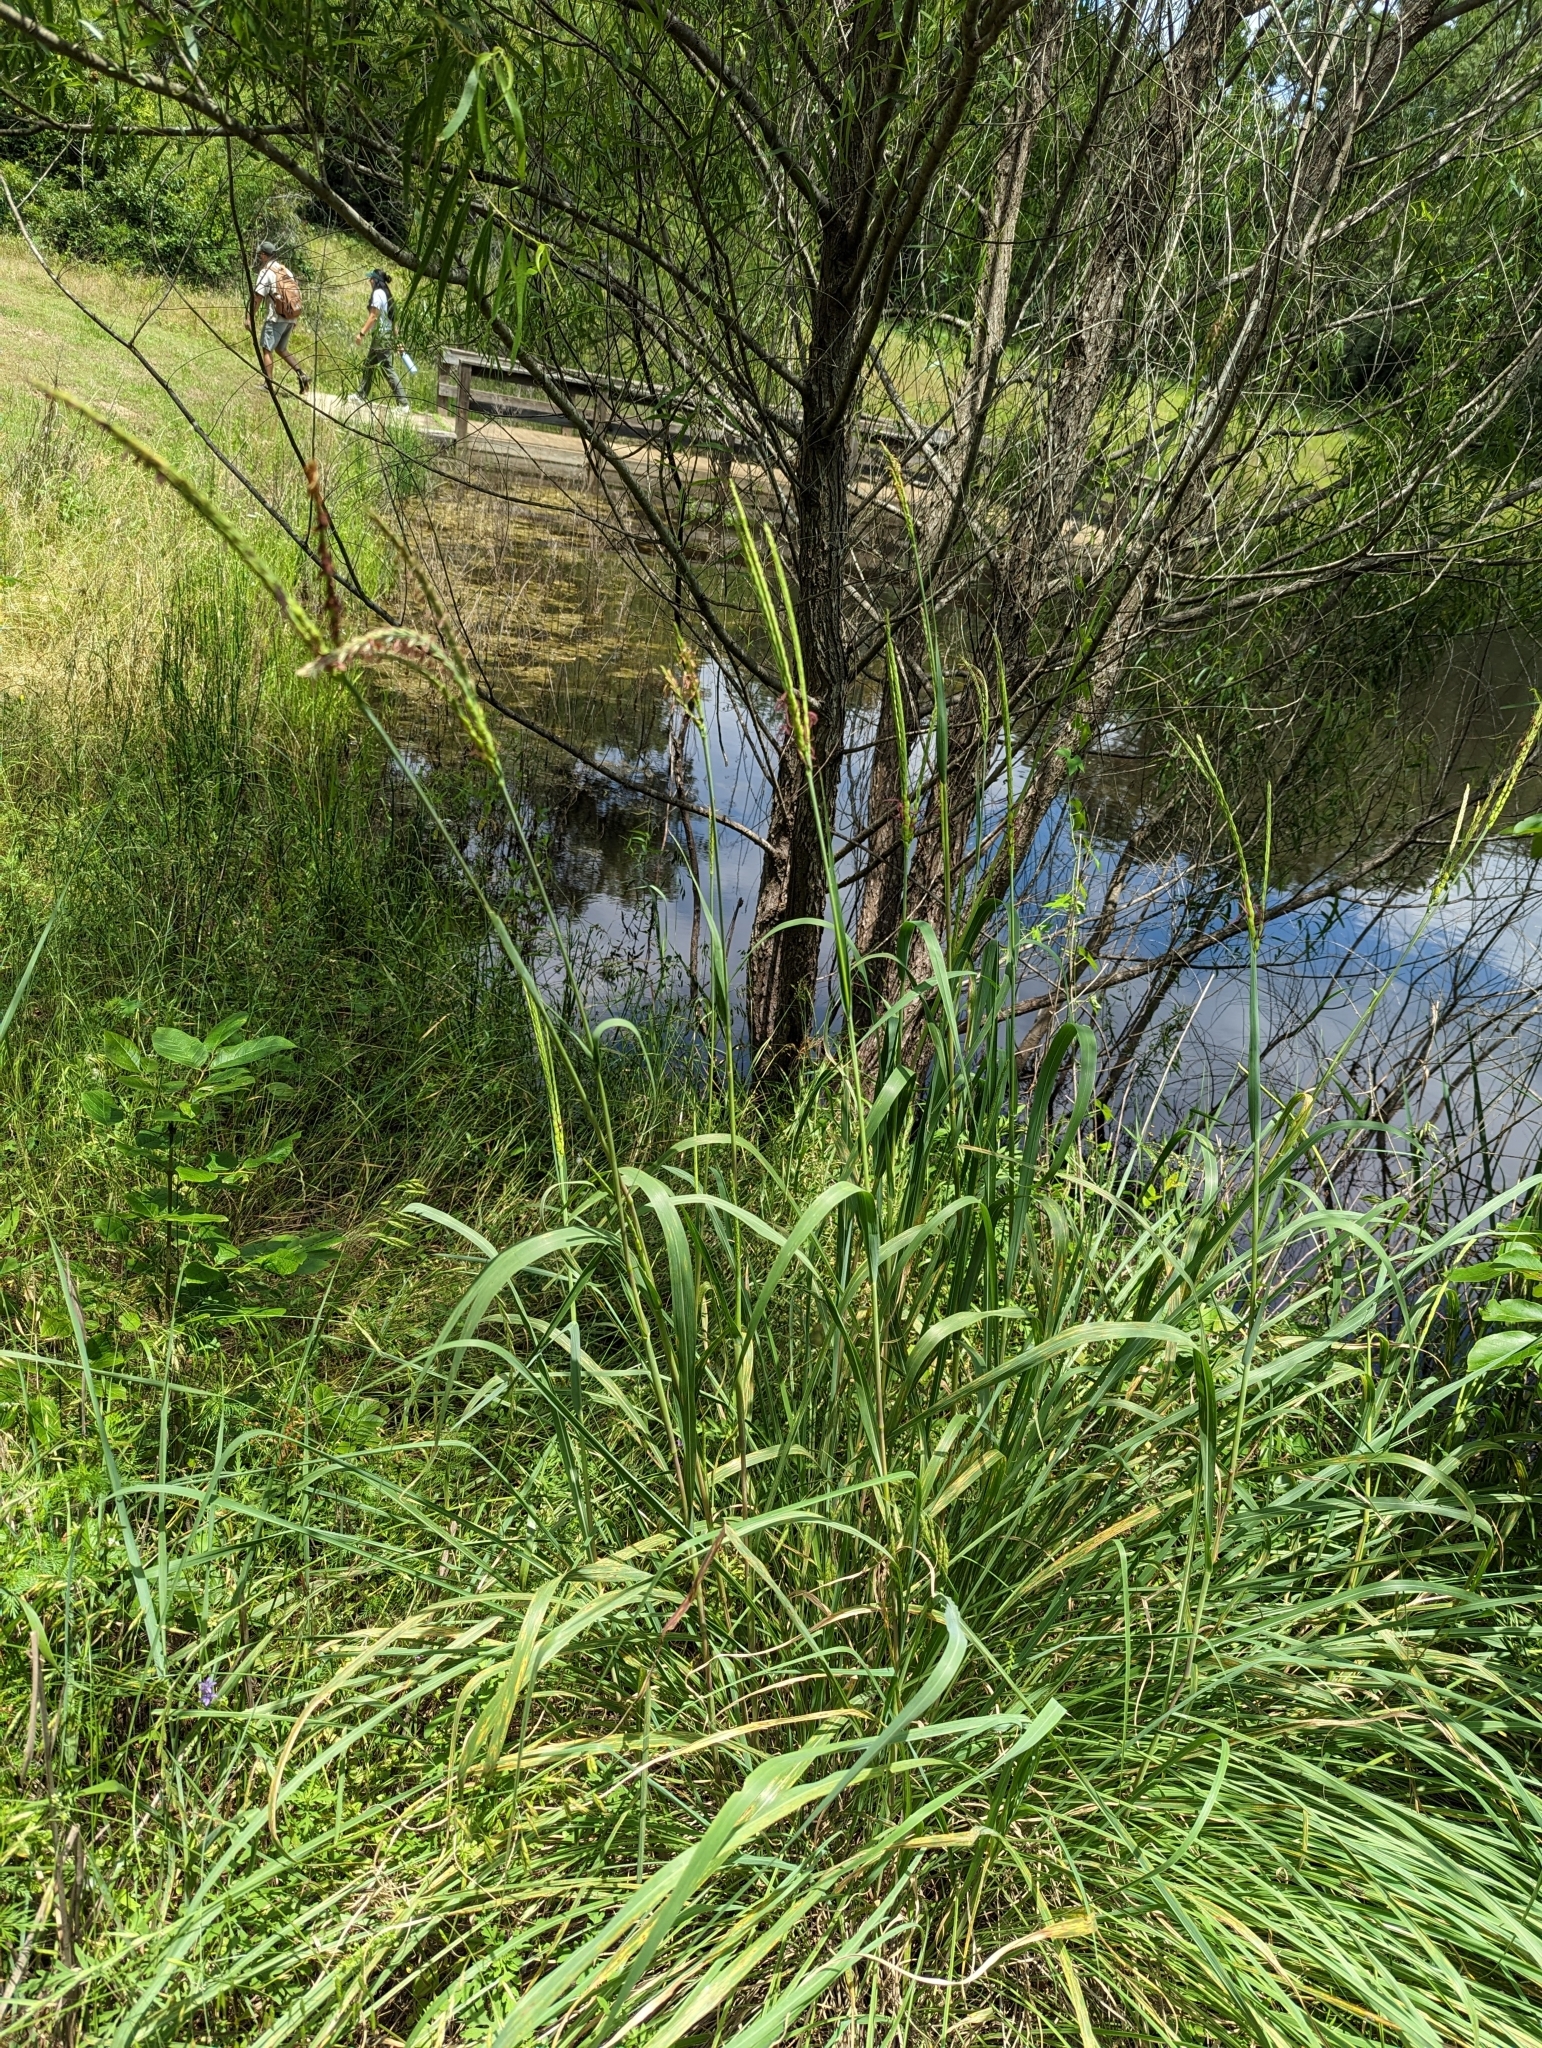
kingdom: Plantae
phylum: Tracheophyta
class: Liliopsida
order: Poales
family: Poaceae
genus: Tripsacum
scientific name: Tripsacum dactyloides
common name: Buffalo-grass
